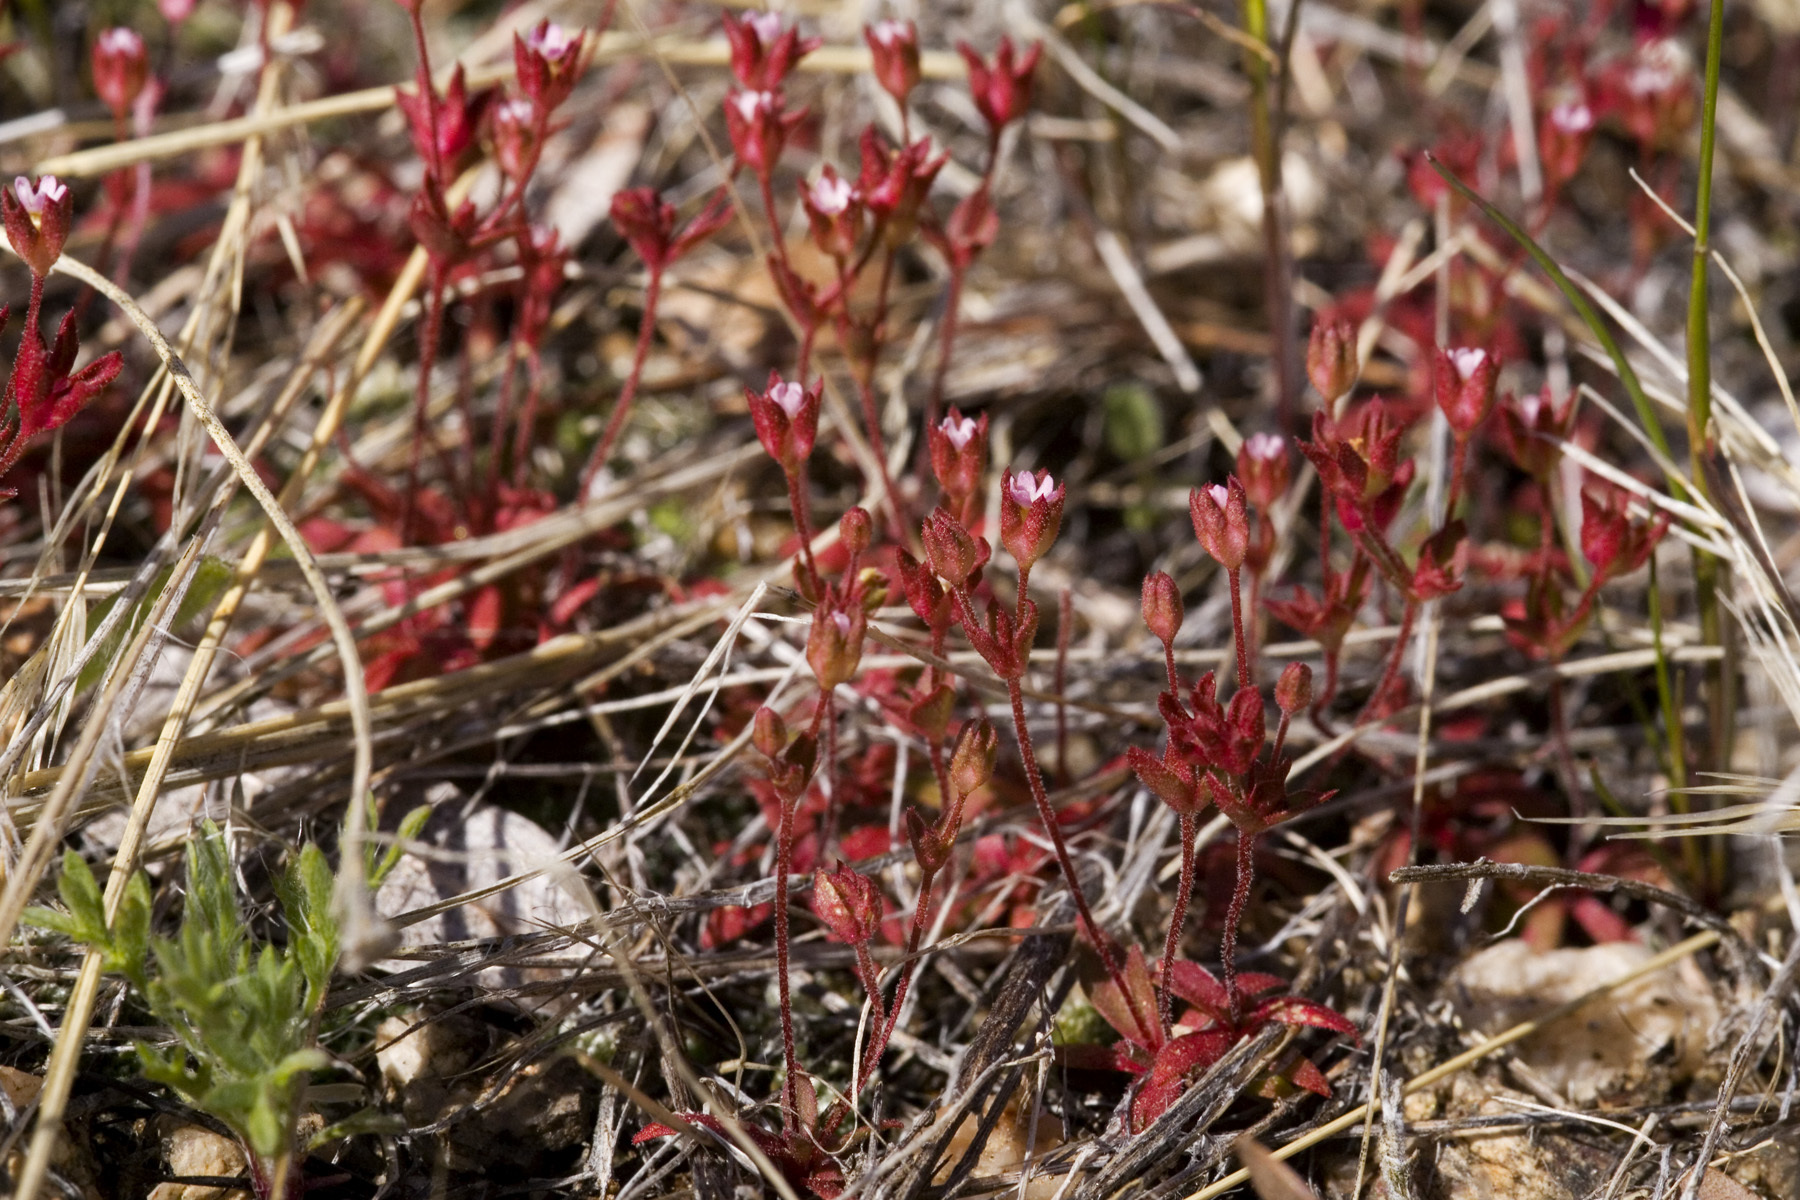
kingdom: Plantae
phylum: Tracheophyta
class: Magnoliopsida
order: Ericales
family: Primulaceae
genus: Androsace
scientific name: Androsace occidentalis
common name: West rock-jasmine
